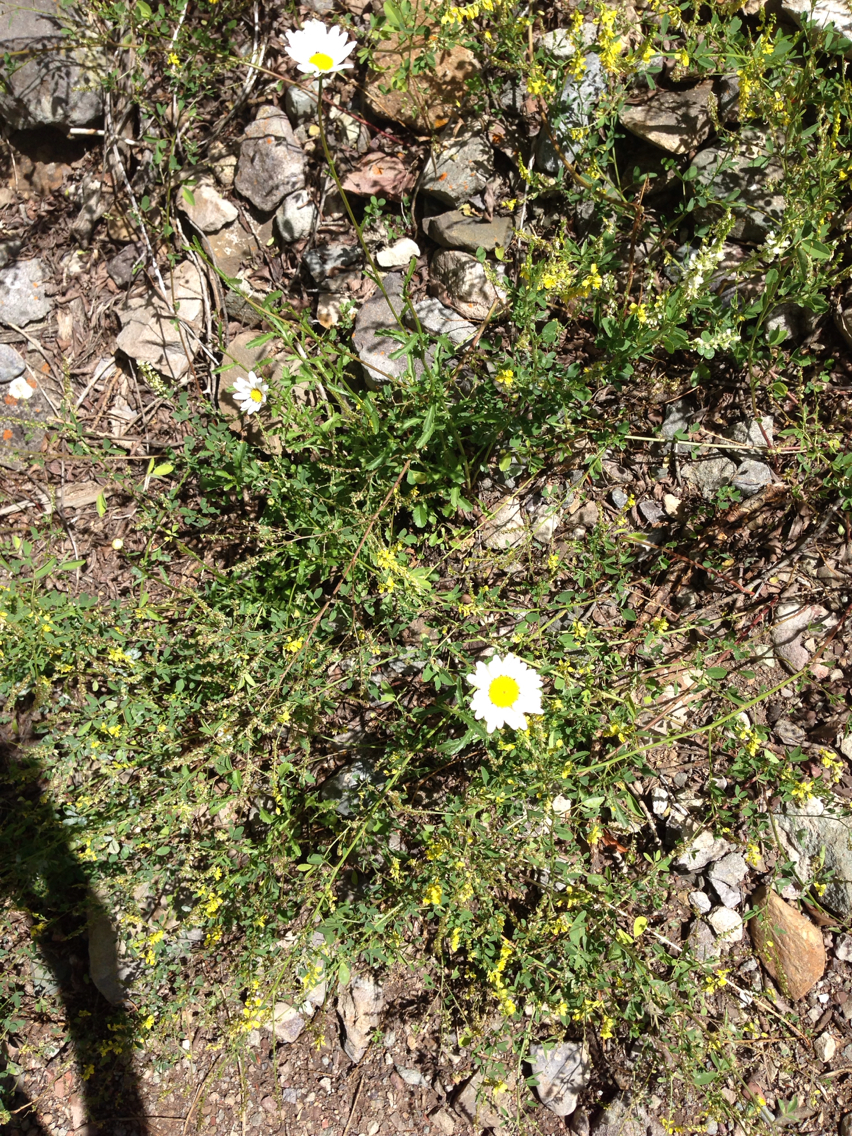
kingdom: Plantae
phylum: Tracheophyta
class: Magnoliopsida
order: Asterales
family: Asteraceae
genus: Leucanthemum
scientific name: Leucanthemum vulgare
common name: Oxeye daisy
